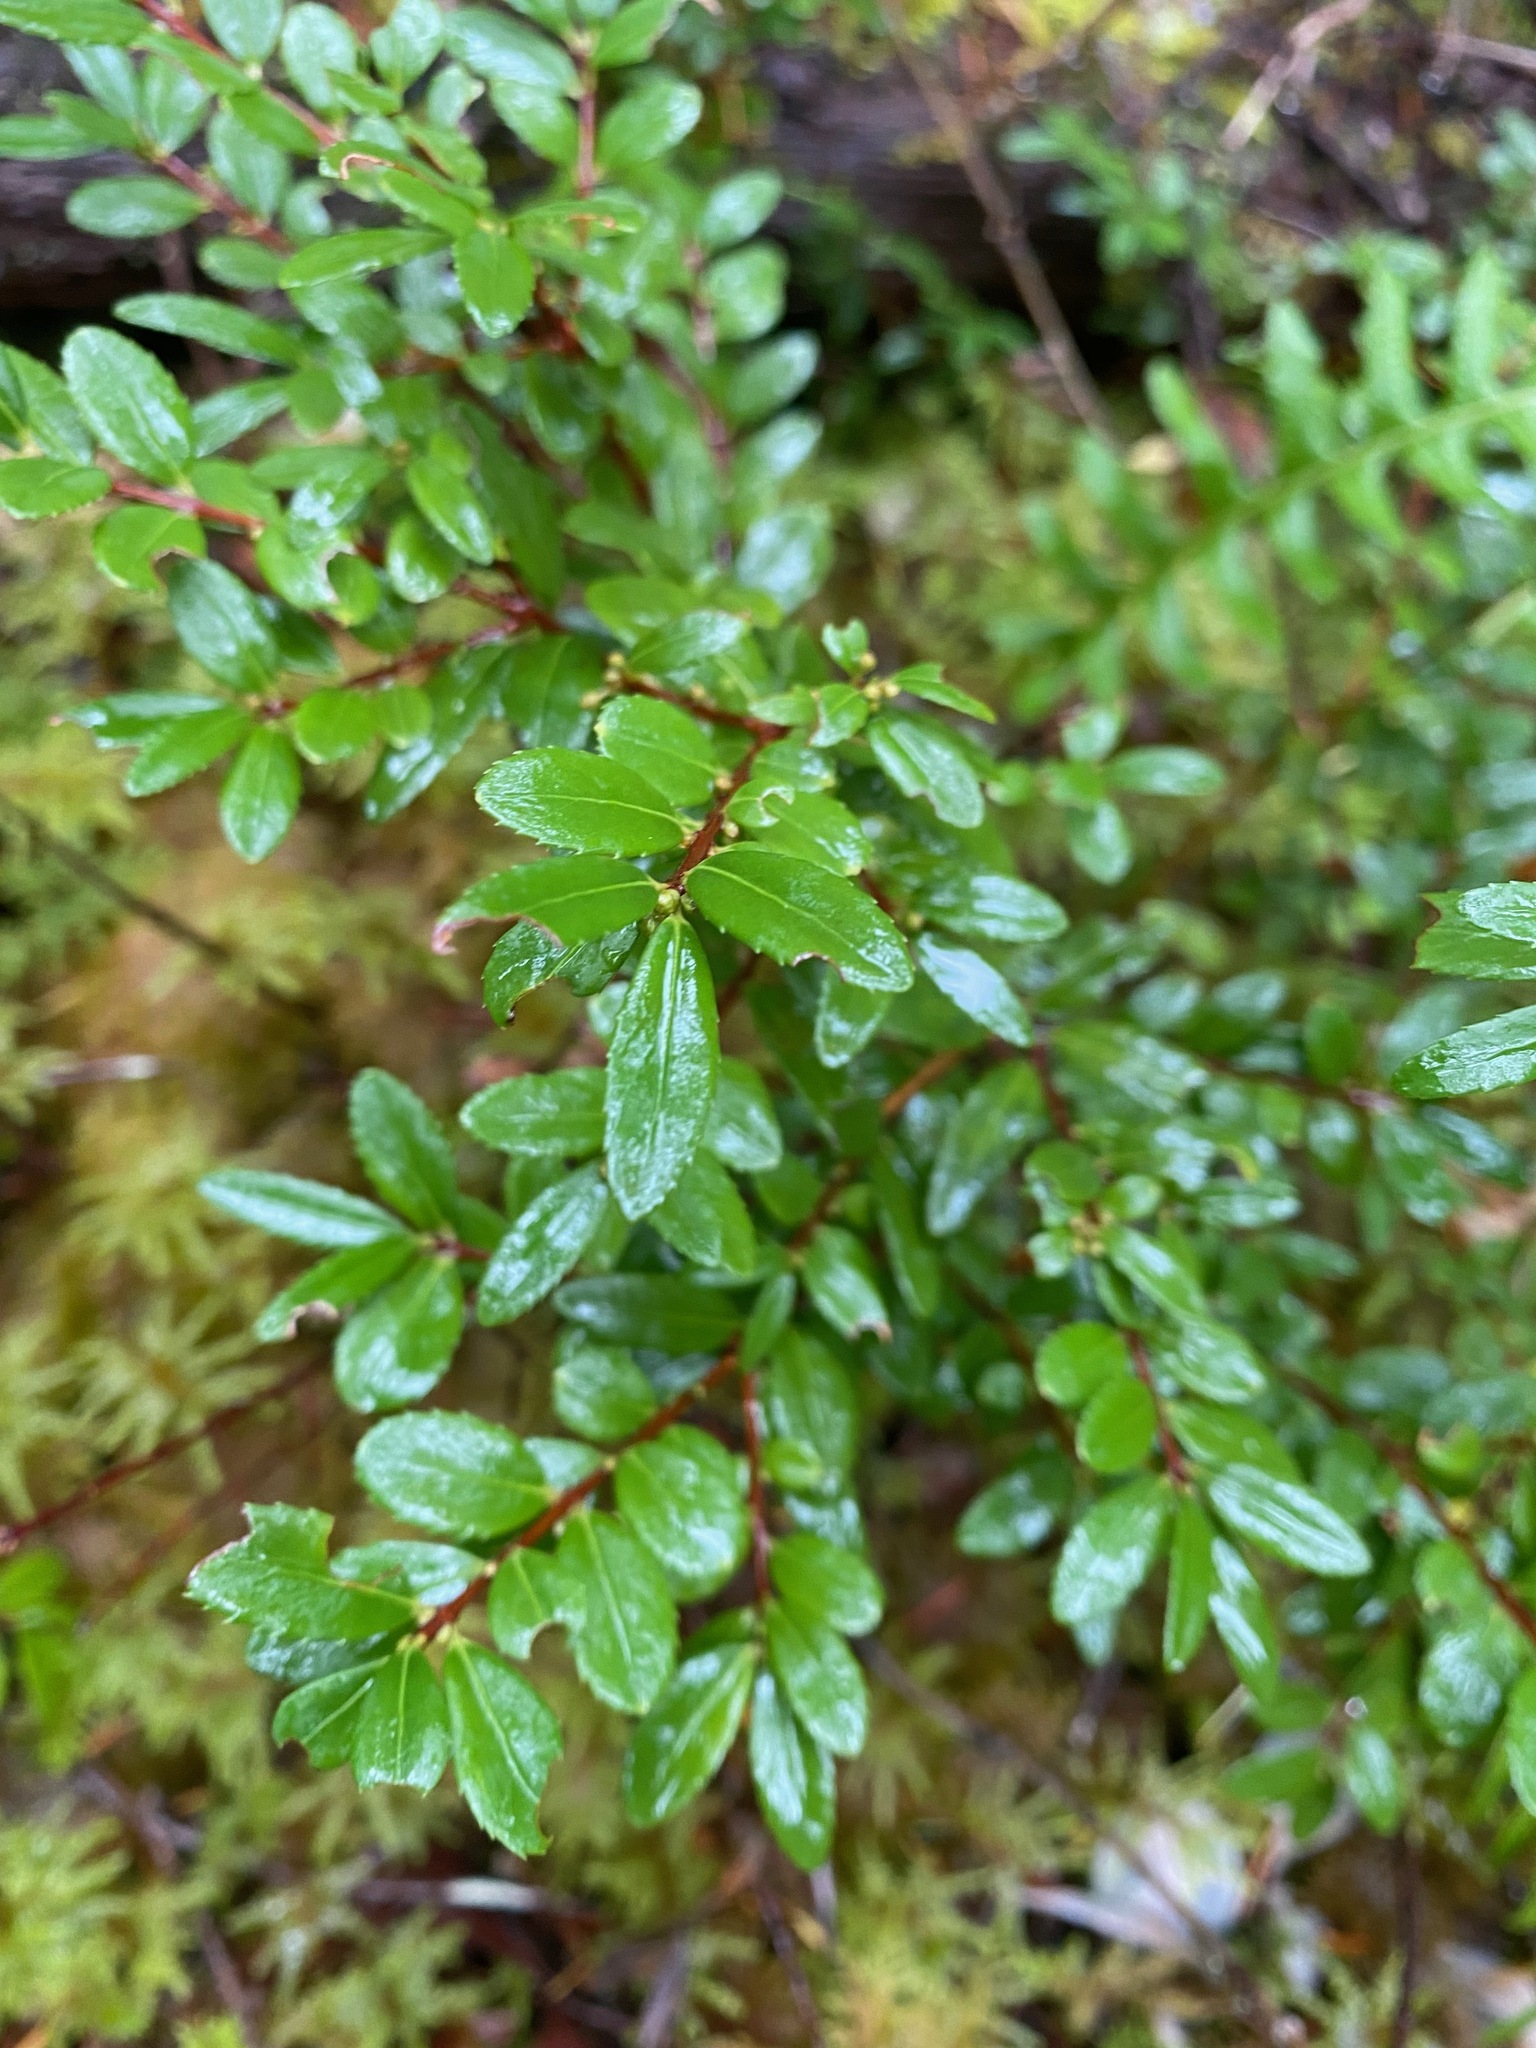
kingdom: Plantae
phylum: Tracheophyta
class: Magnoliopsida
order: Celastrales
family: Celastraceae
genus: Paxistima
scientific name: Paxistima myrsinites
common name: Mountain-lover
